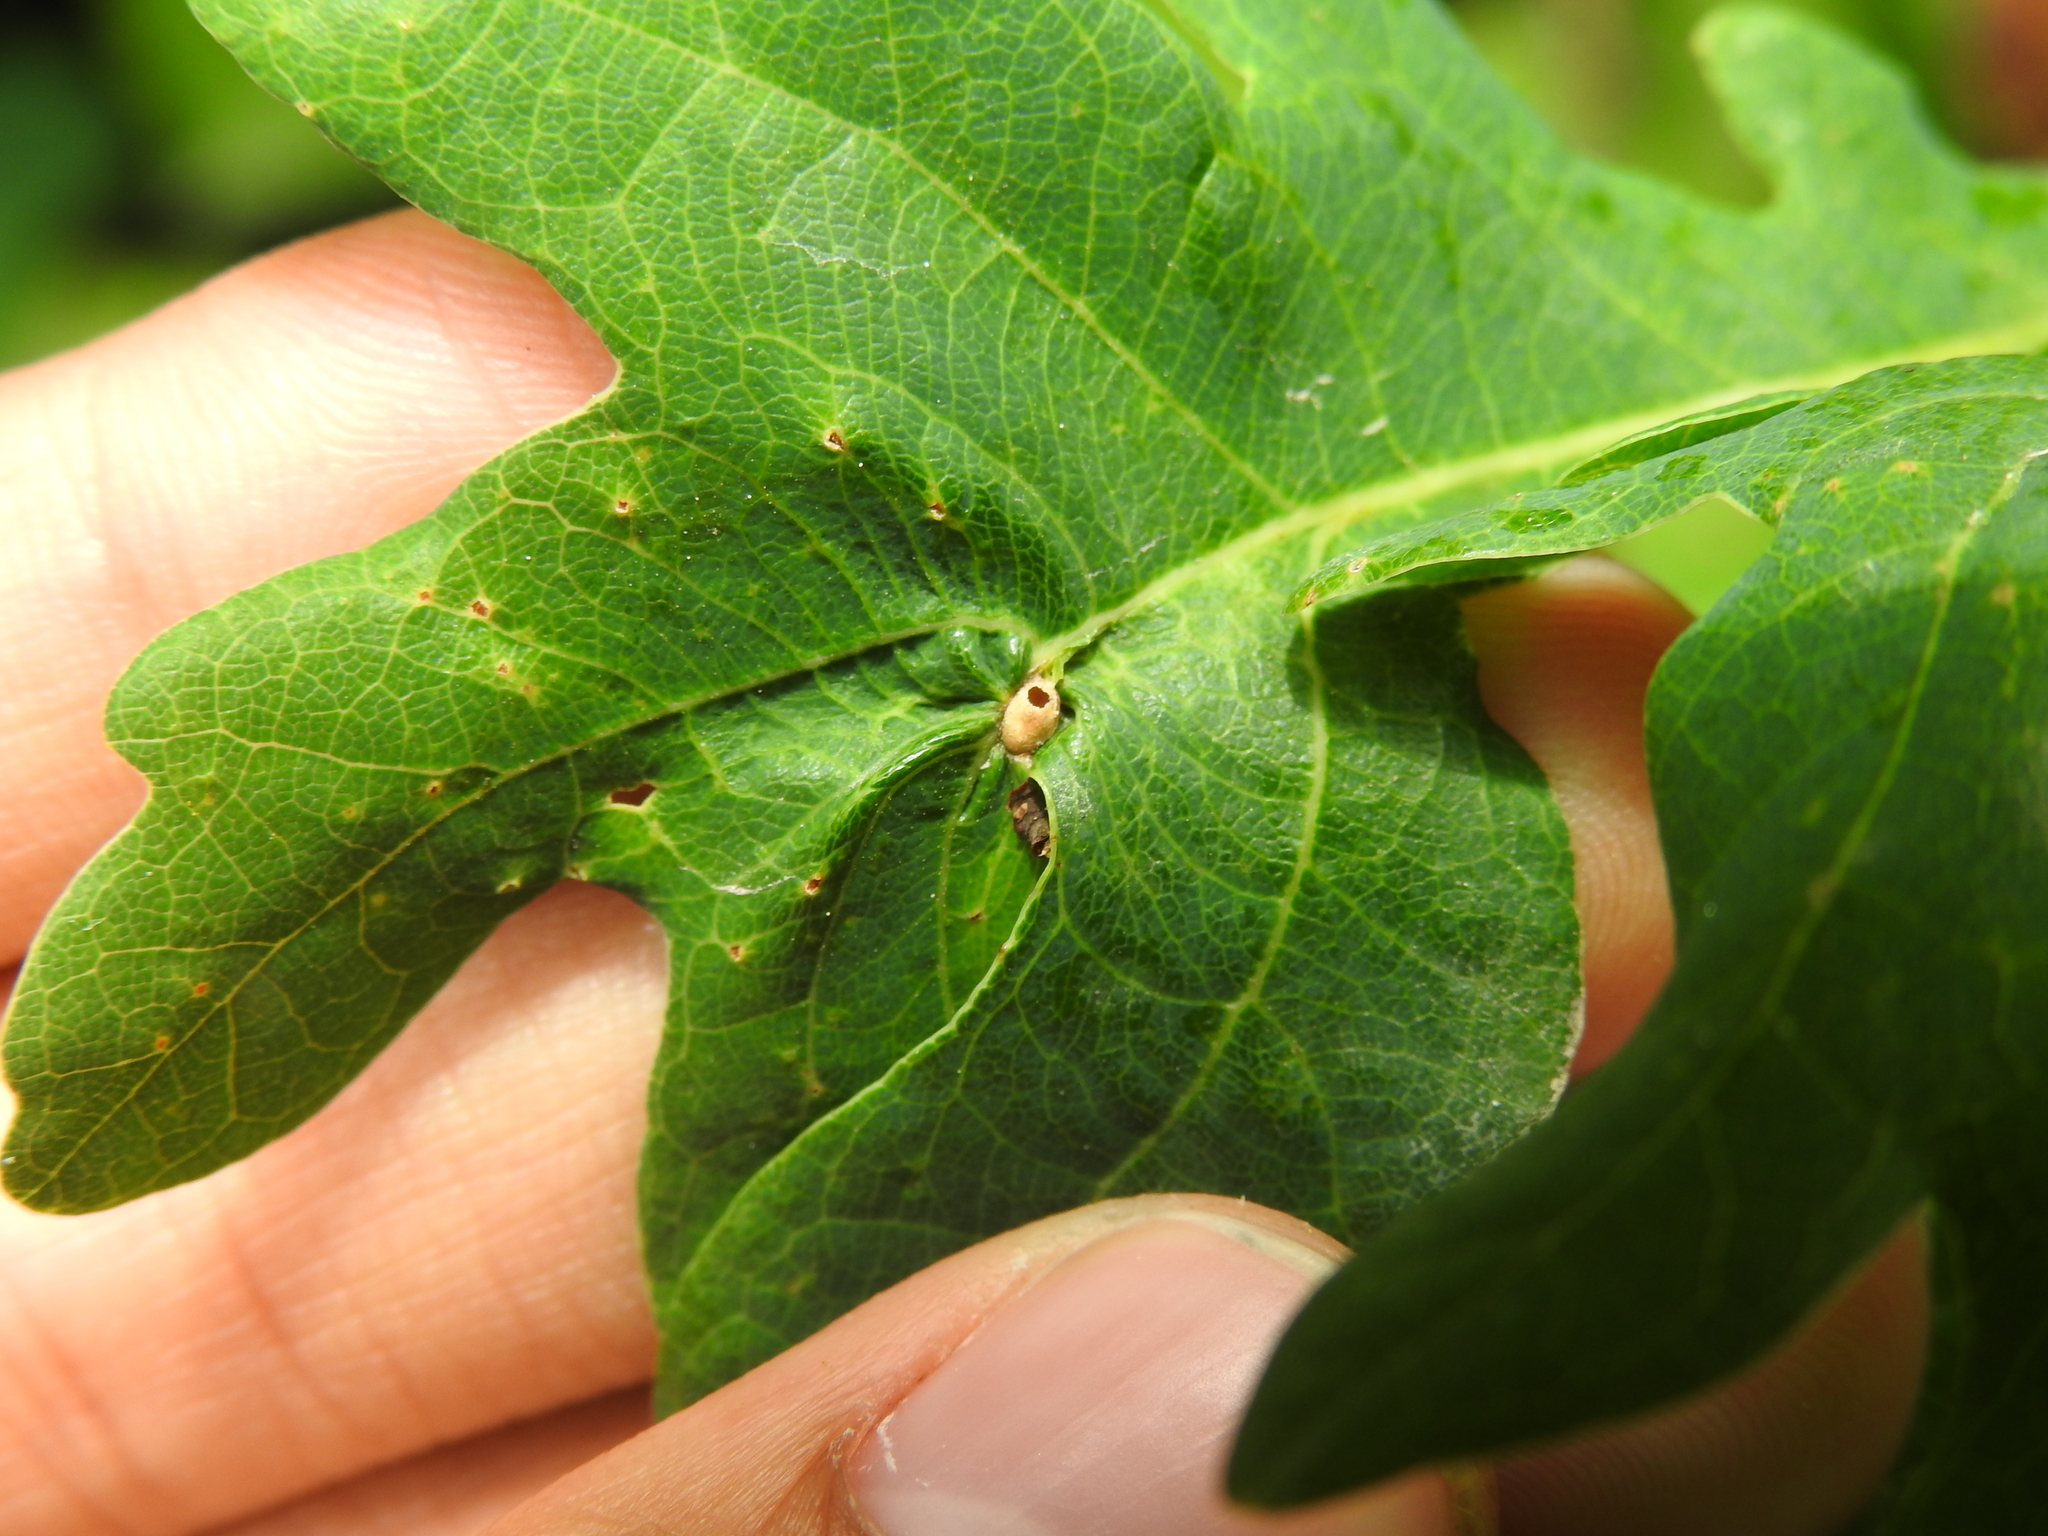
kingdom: Animalia
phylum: Arthropoda
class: Insecta
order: Hymenoptera
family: Cynipidae
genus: Neuroterus
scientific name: Neuroterus albipes
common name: Smooth spangle gall
